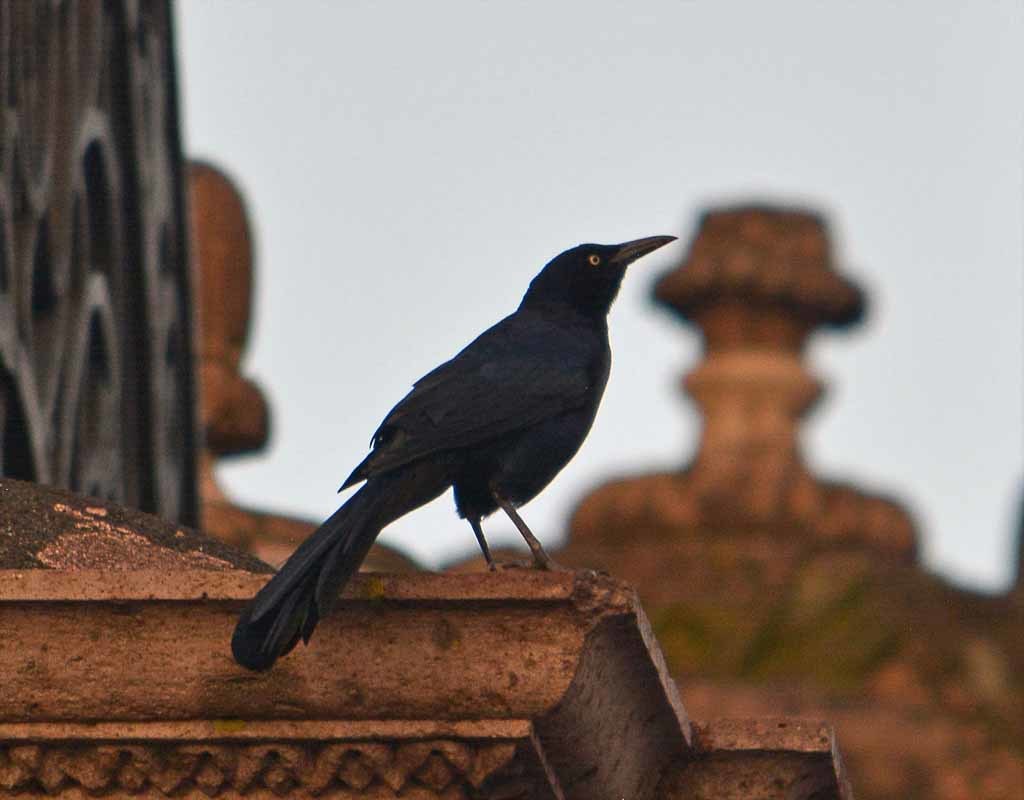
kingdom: Animalia
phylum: Chordata
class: Aves
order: Passeriformes
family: Icteridae
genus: Quiscalus
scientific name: Quiscalus mexicanus
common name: Great-tailed grackle
